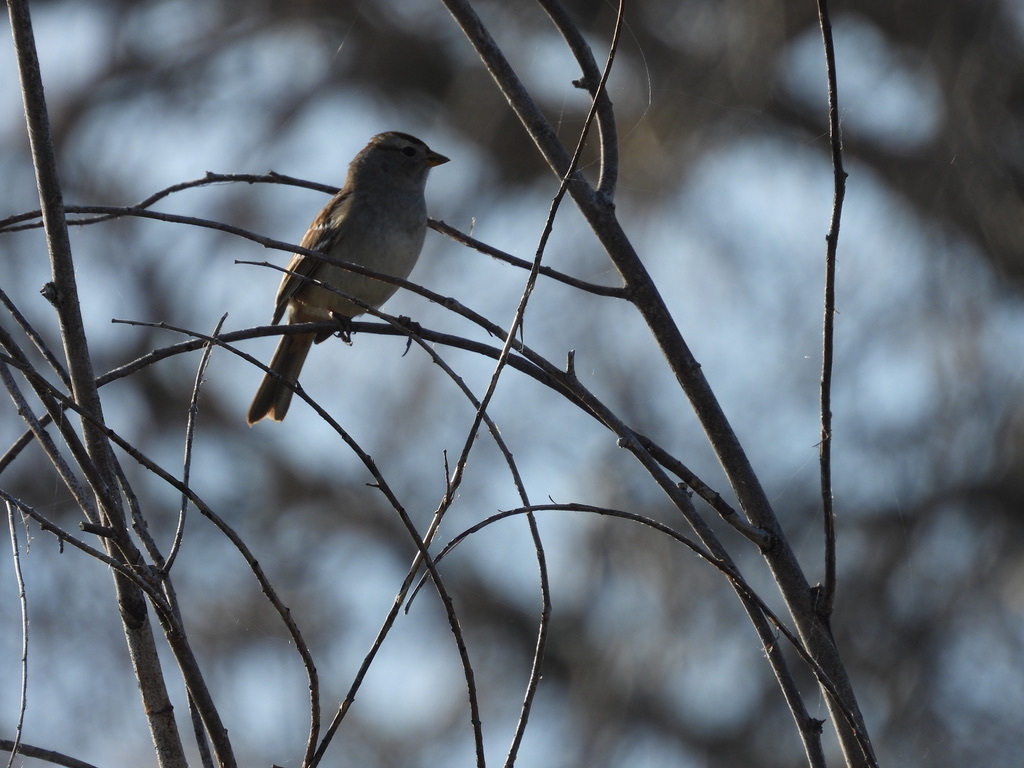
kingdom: Animalia
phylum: Chordata
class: Aves
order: Passeriformes
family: Passerellidae
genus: Zonotrichia
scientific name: Zonotrichia leucophrys
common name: White-crowned sparrow
